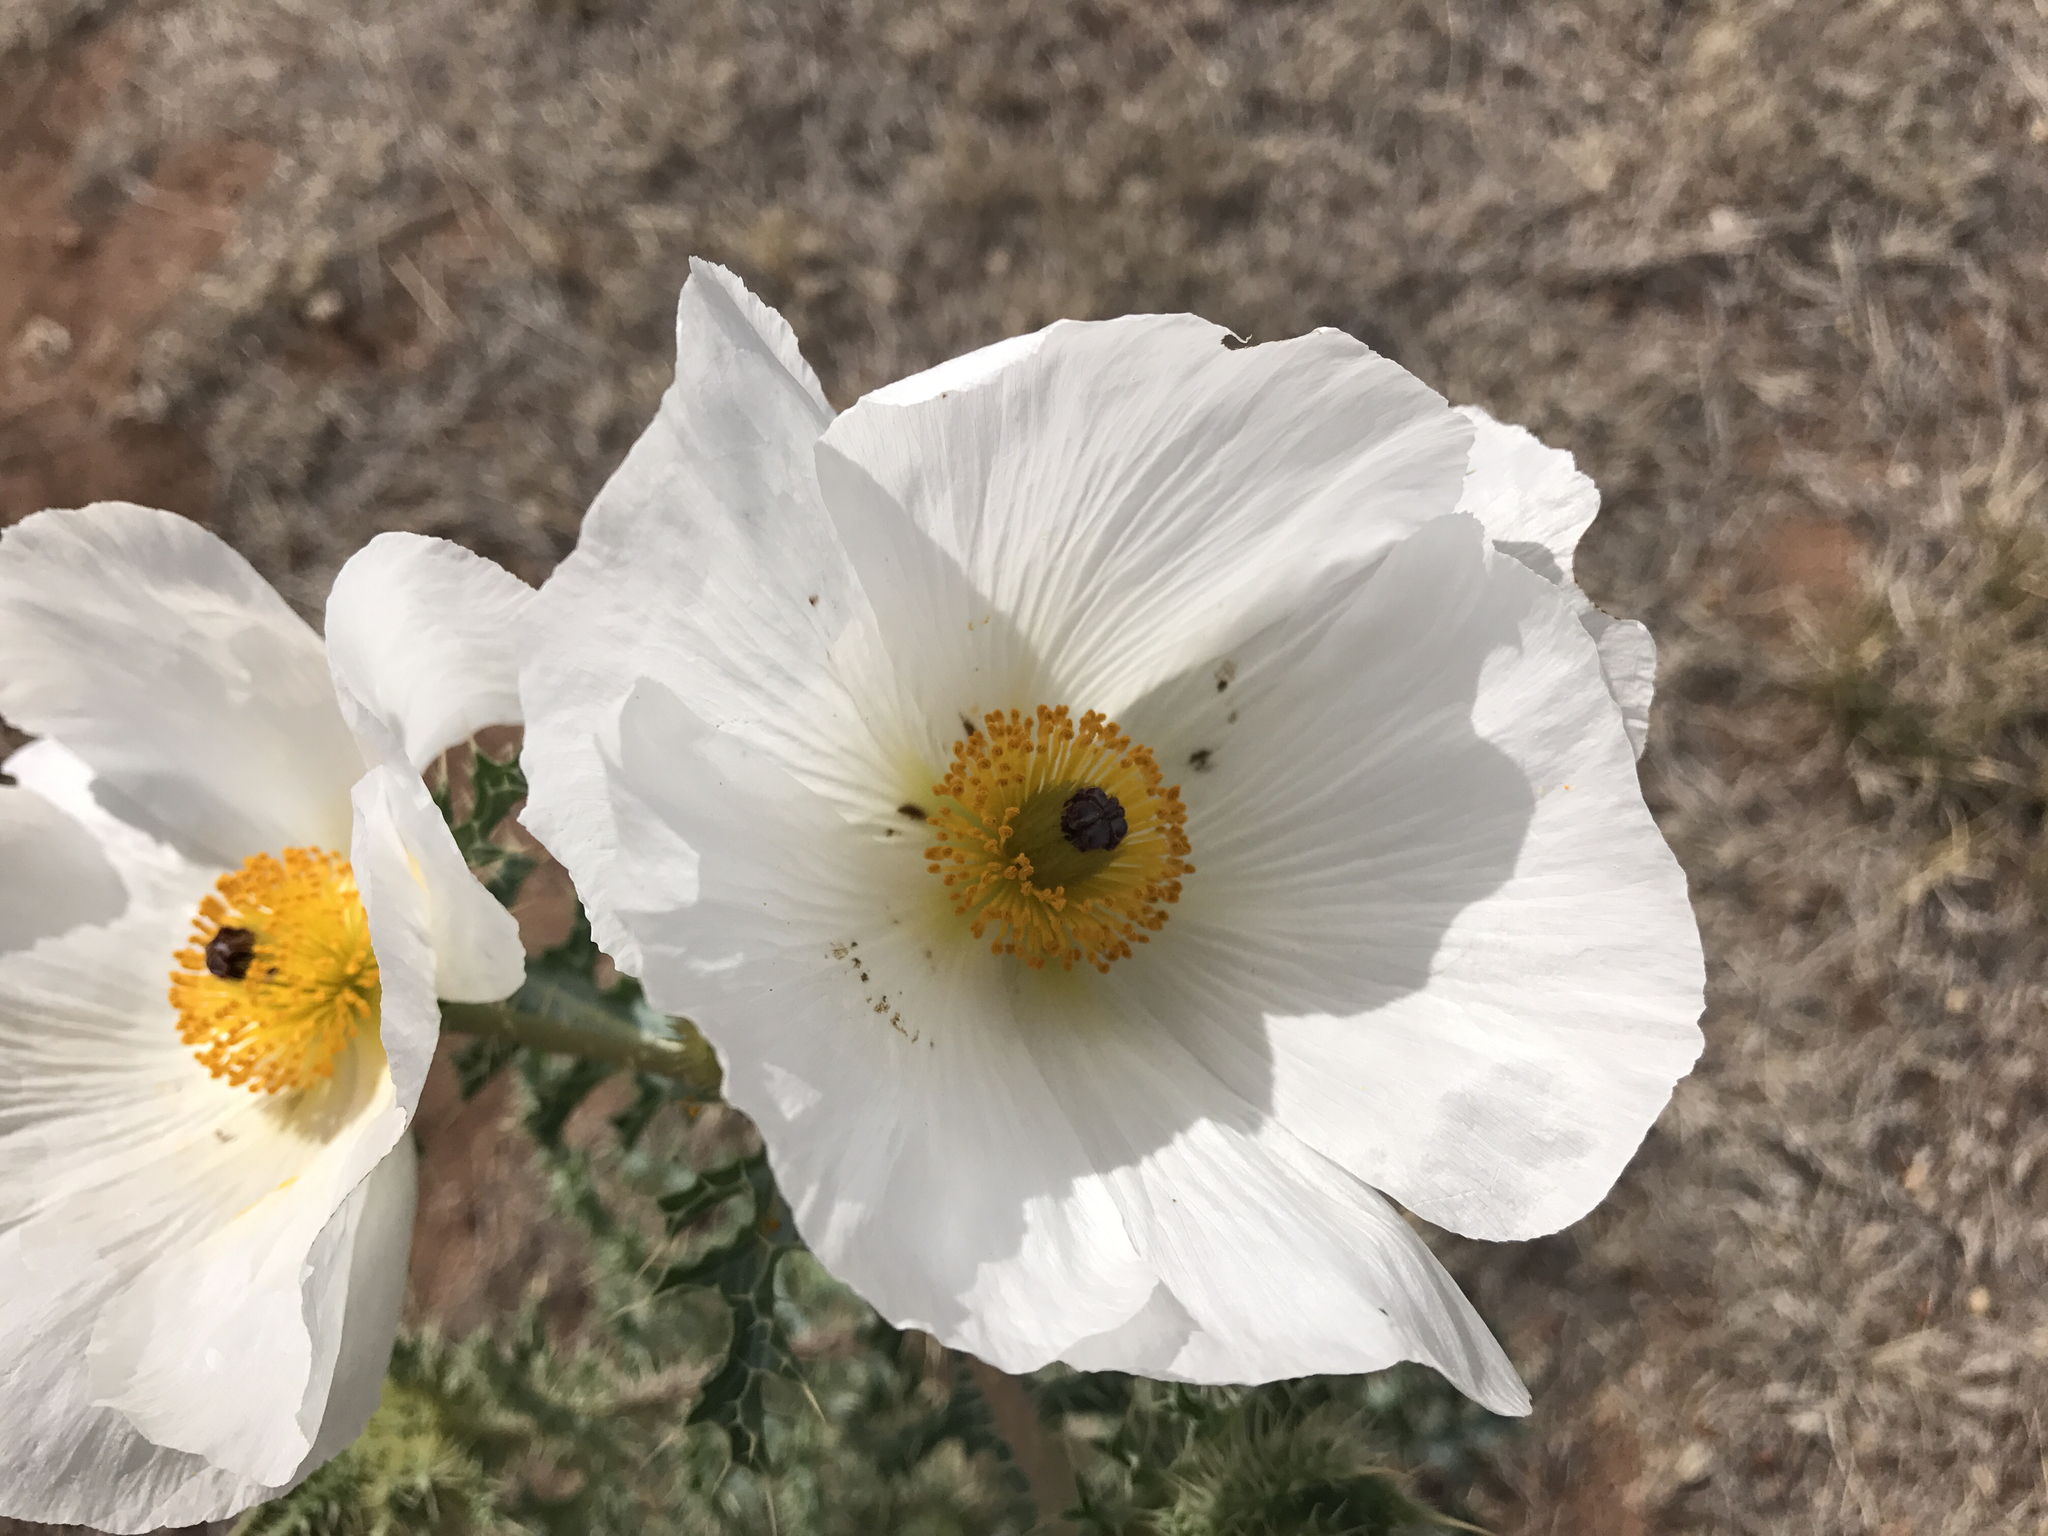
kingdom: Plantae
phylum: Tracheophyta
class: Magnoliopsida
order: Ranunculales
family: Papaveraceae
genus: Argemone
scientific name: Argemone pleiacantha
